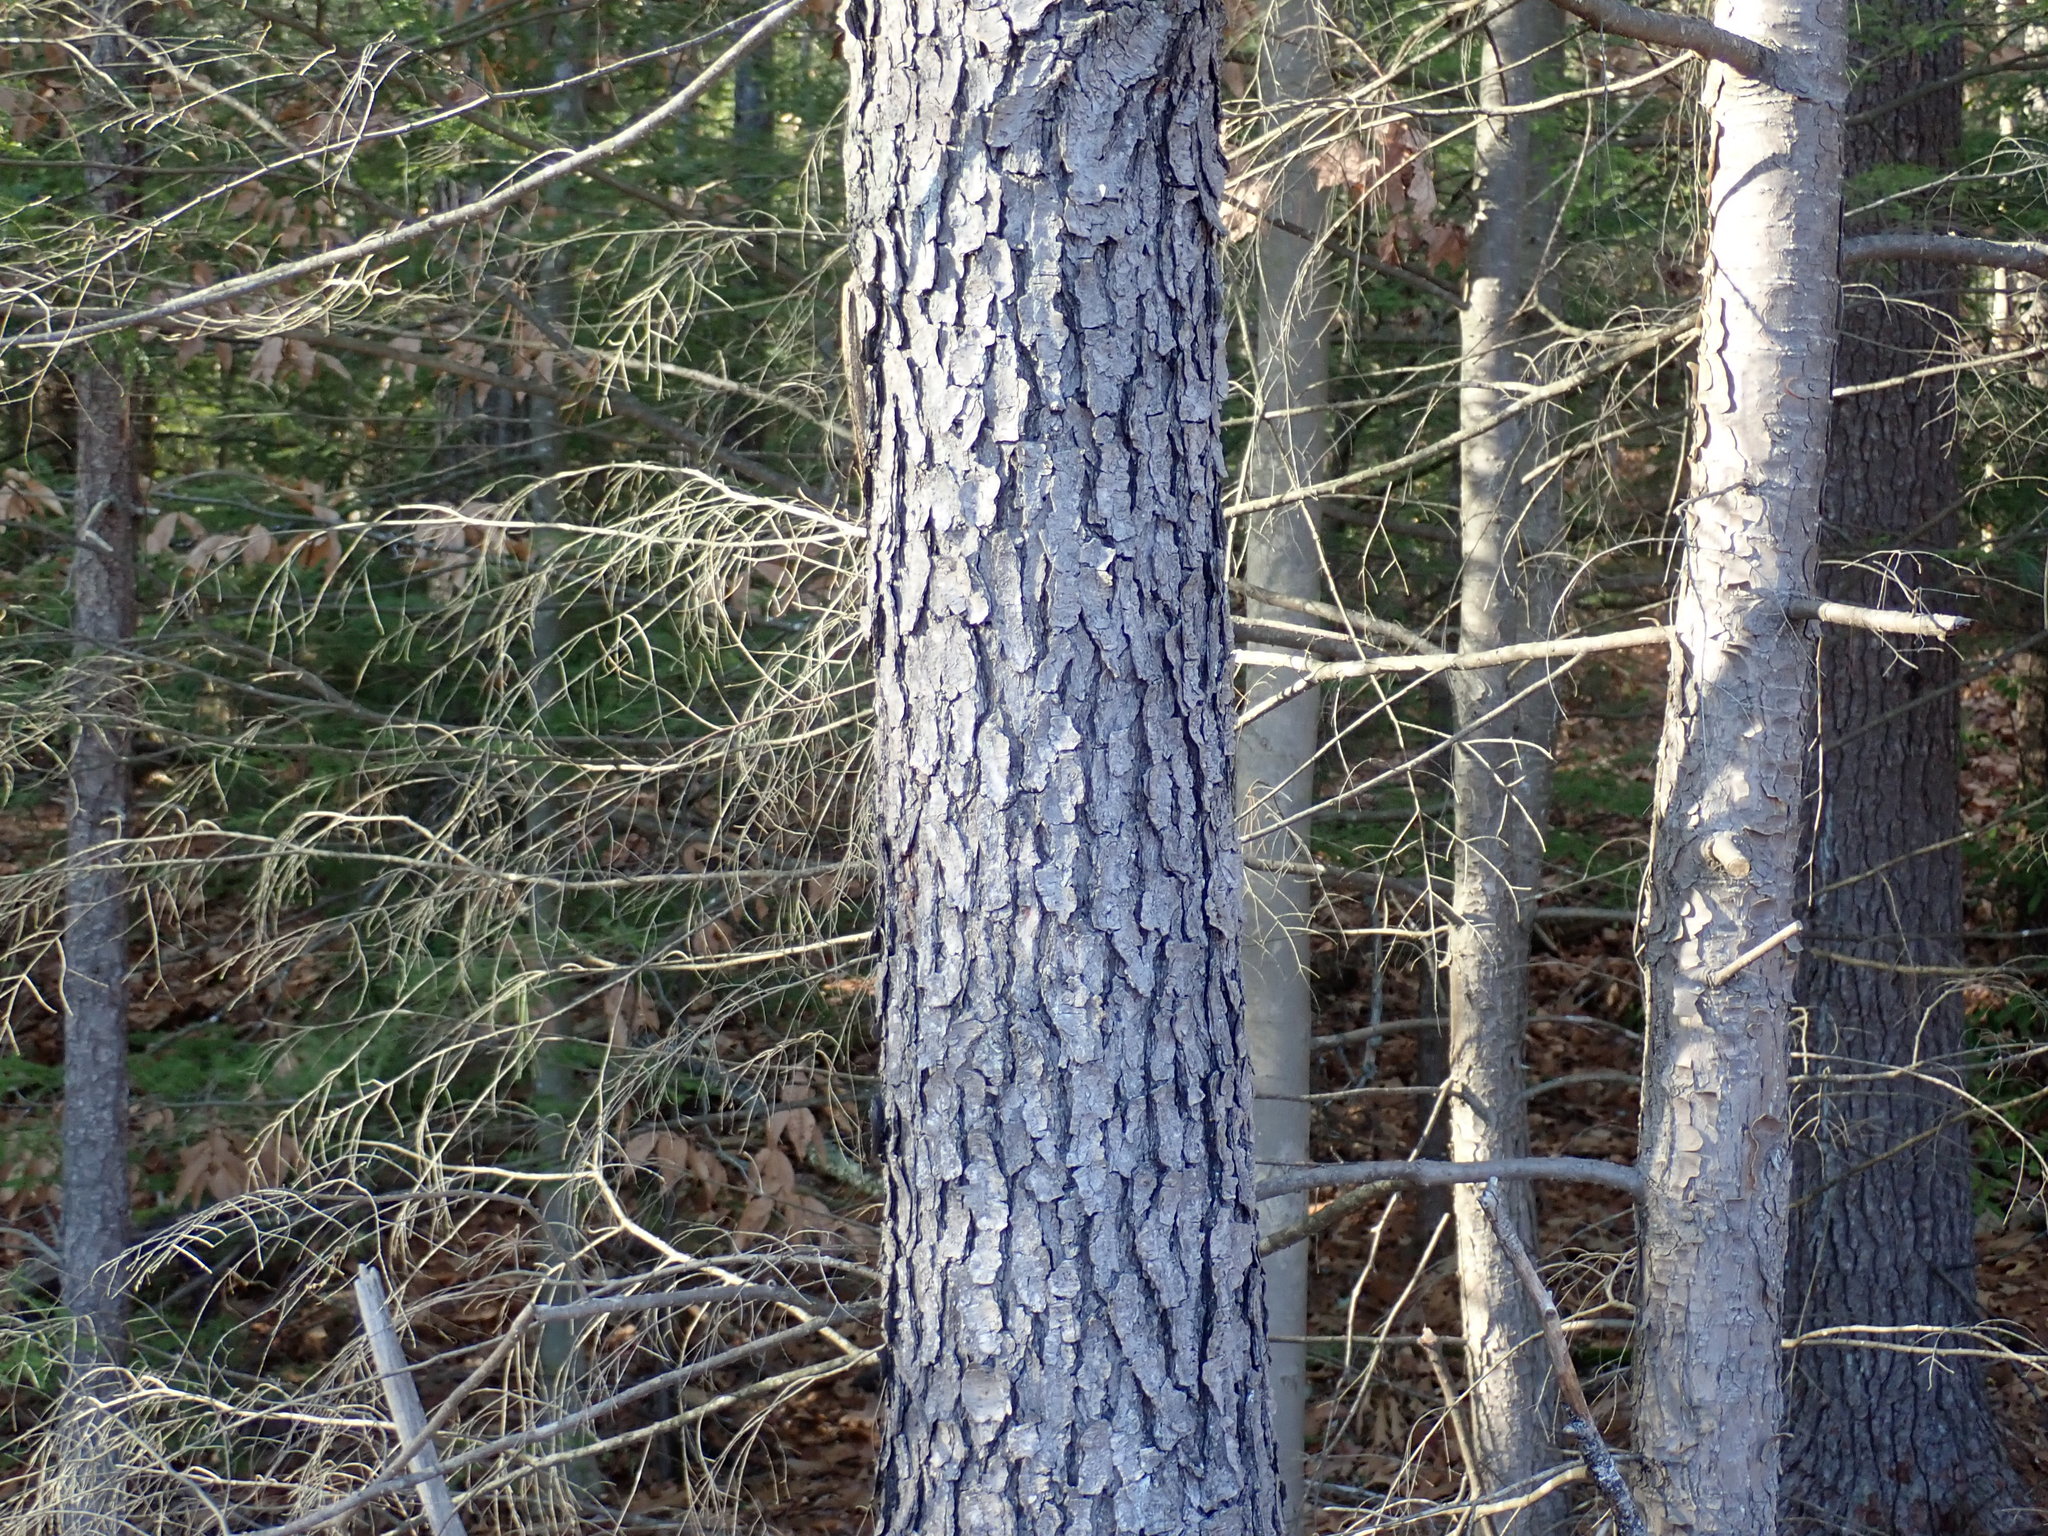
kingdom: Plantae
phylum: Tracheophyta
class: Magnoliopsida
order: Rosales
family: Rosaceae
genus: Prunus
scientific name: Prunus serotina
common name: Black cherry
